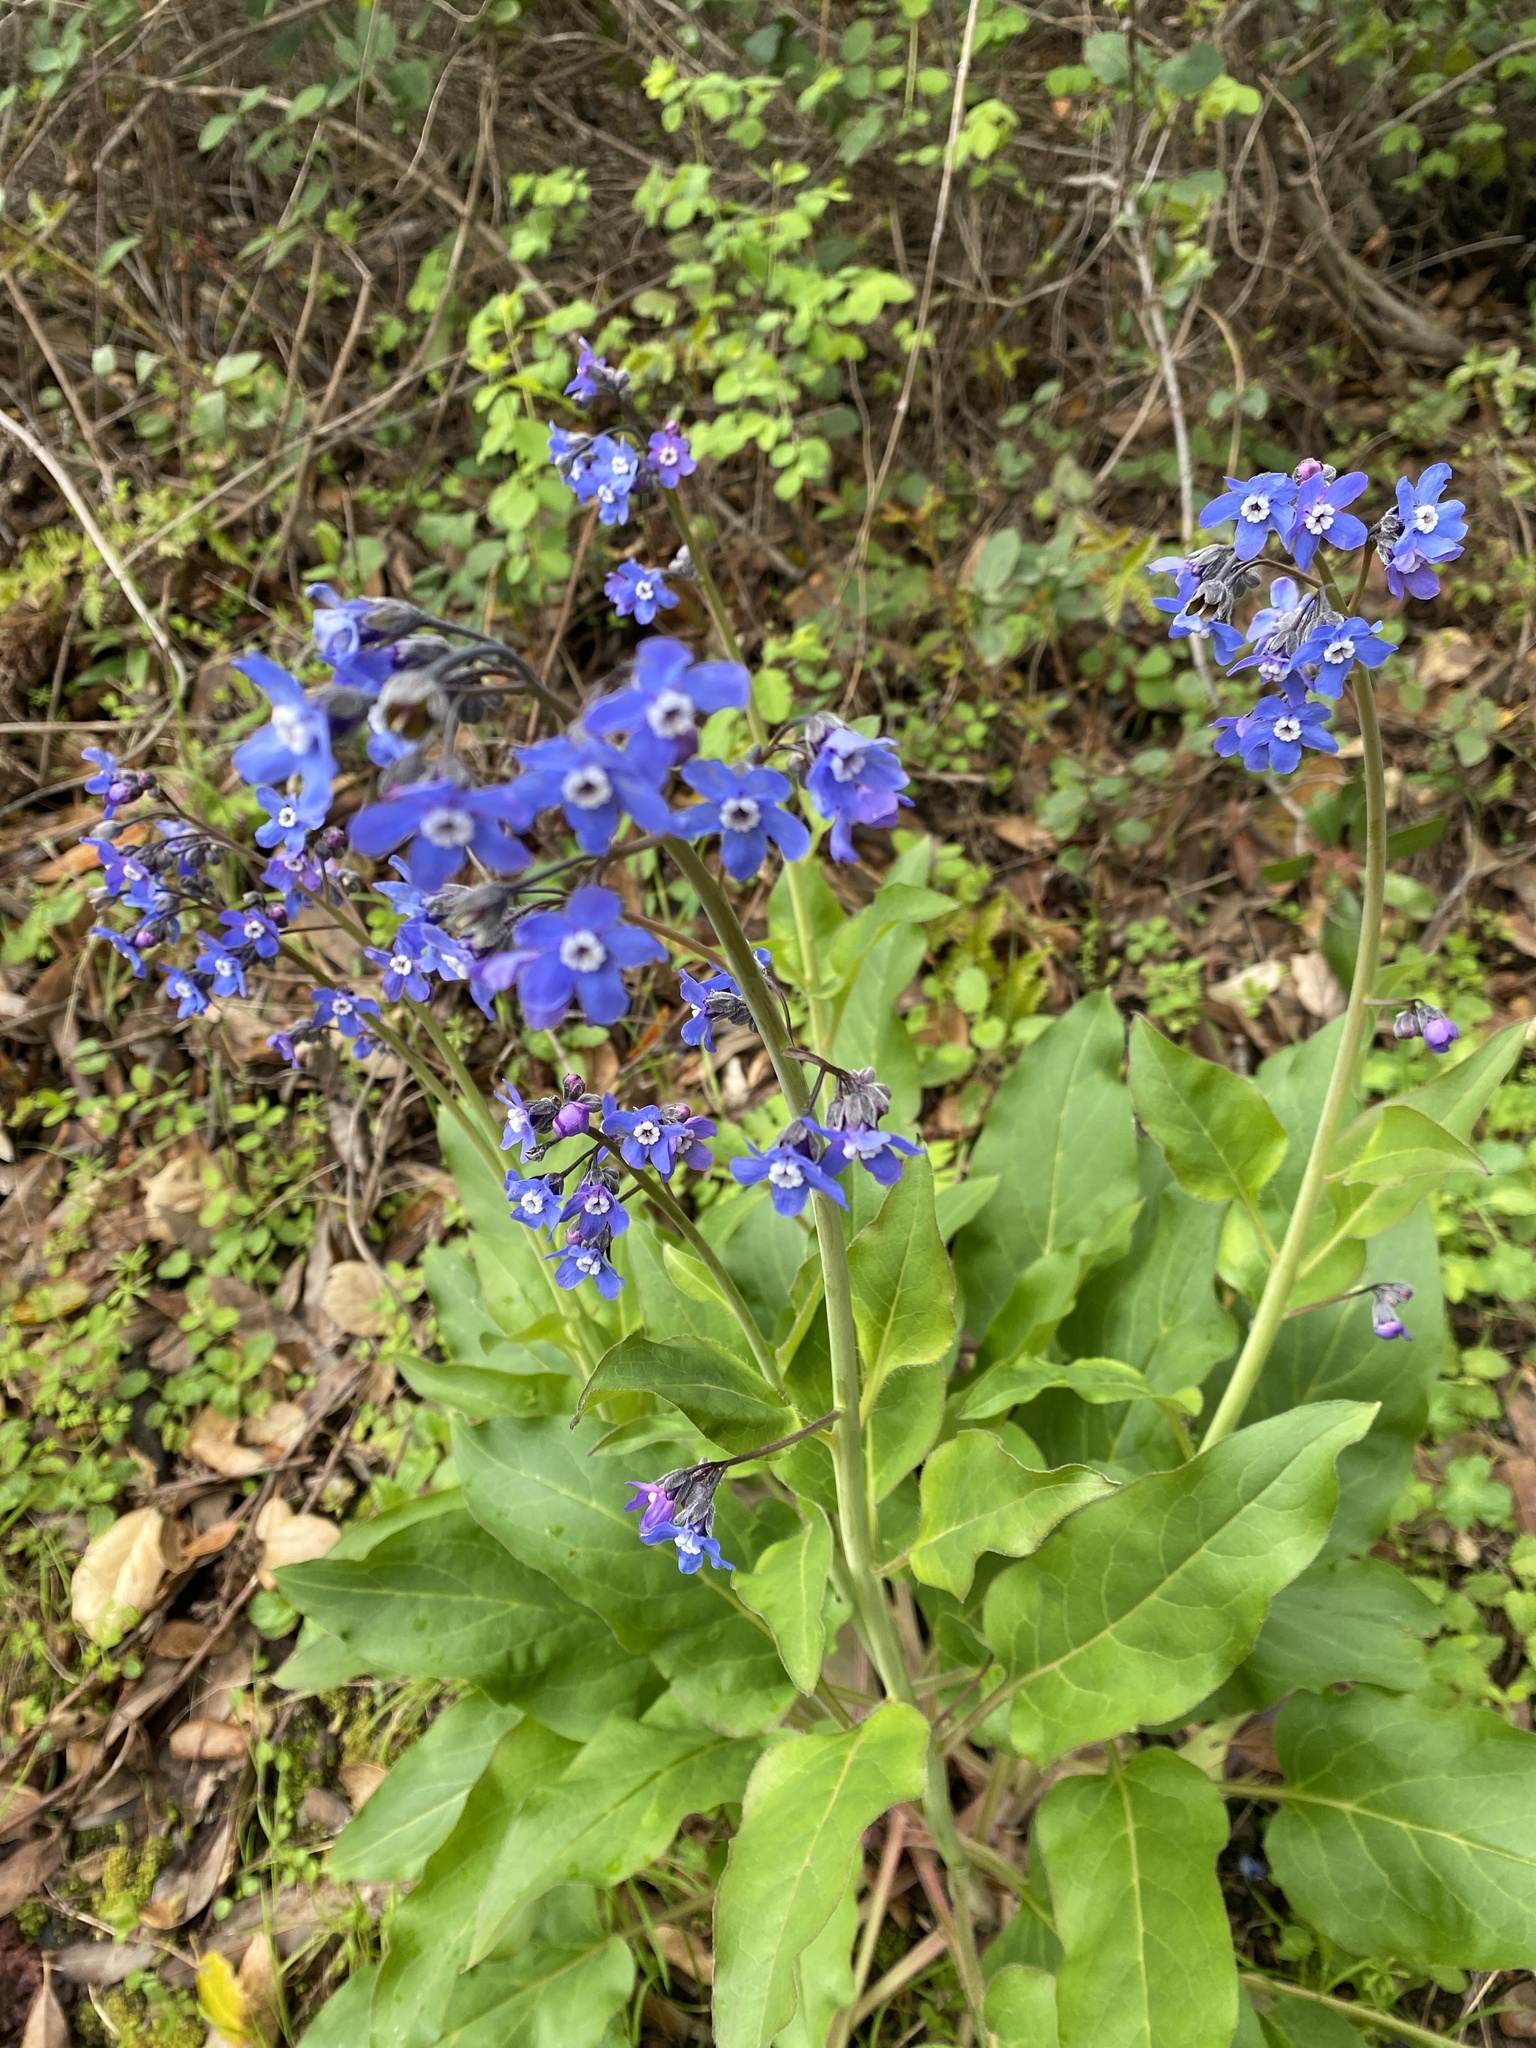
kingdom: Plantae
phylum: Tracheophyta
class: Magnoliopsida
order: Boraginales
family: Boraginaceae
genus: Adelinia
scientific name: Adelinia grande
